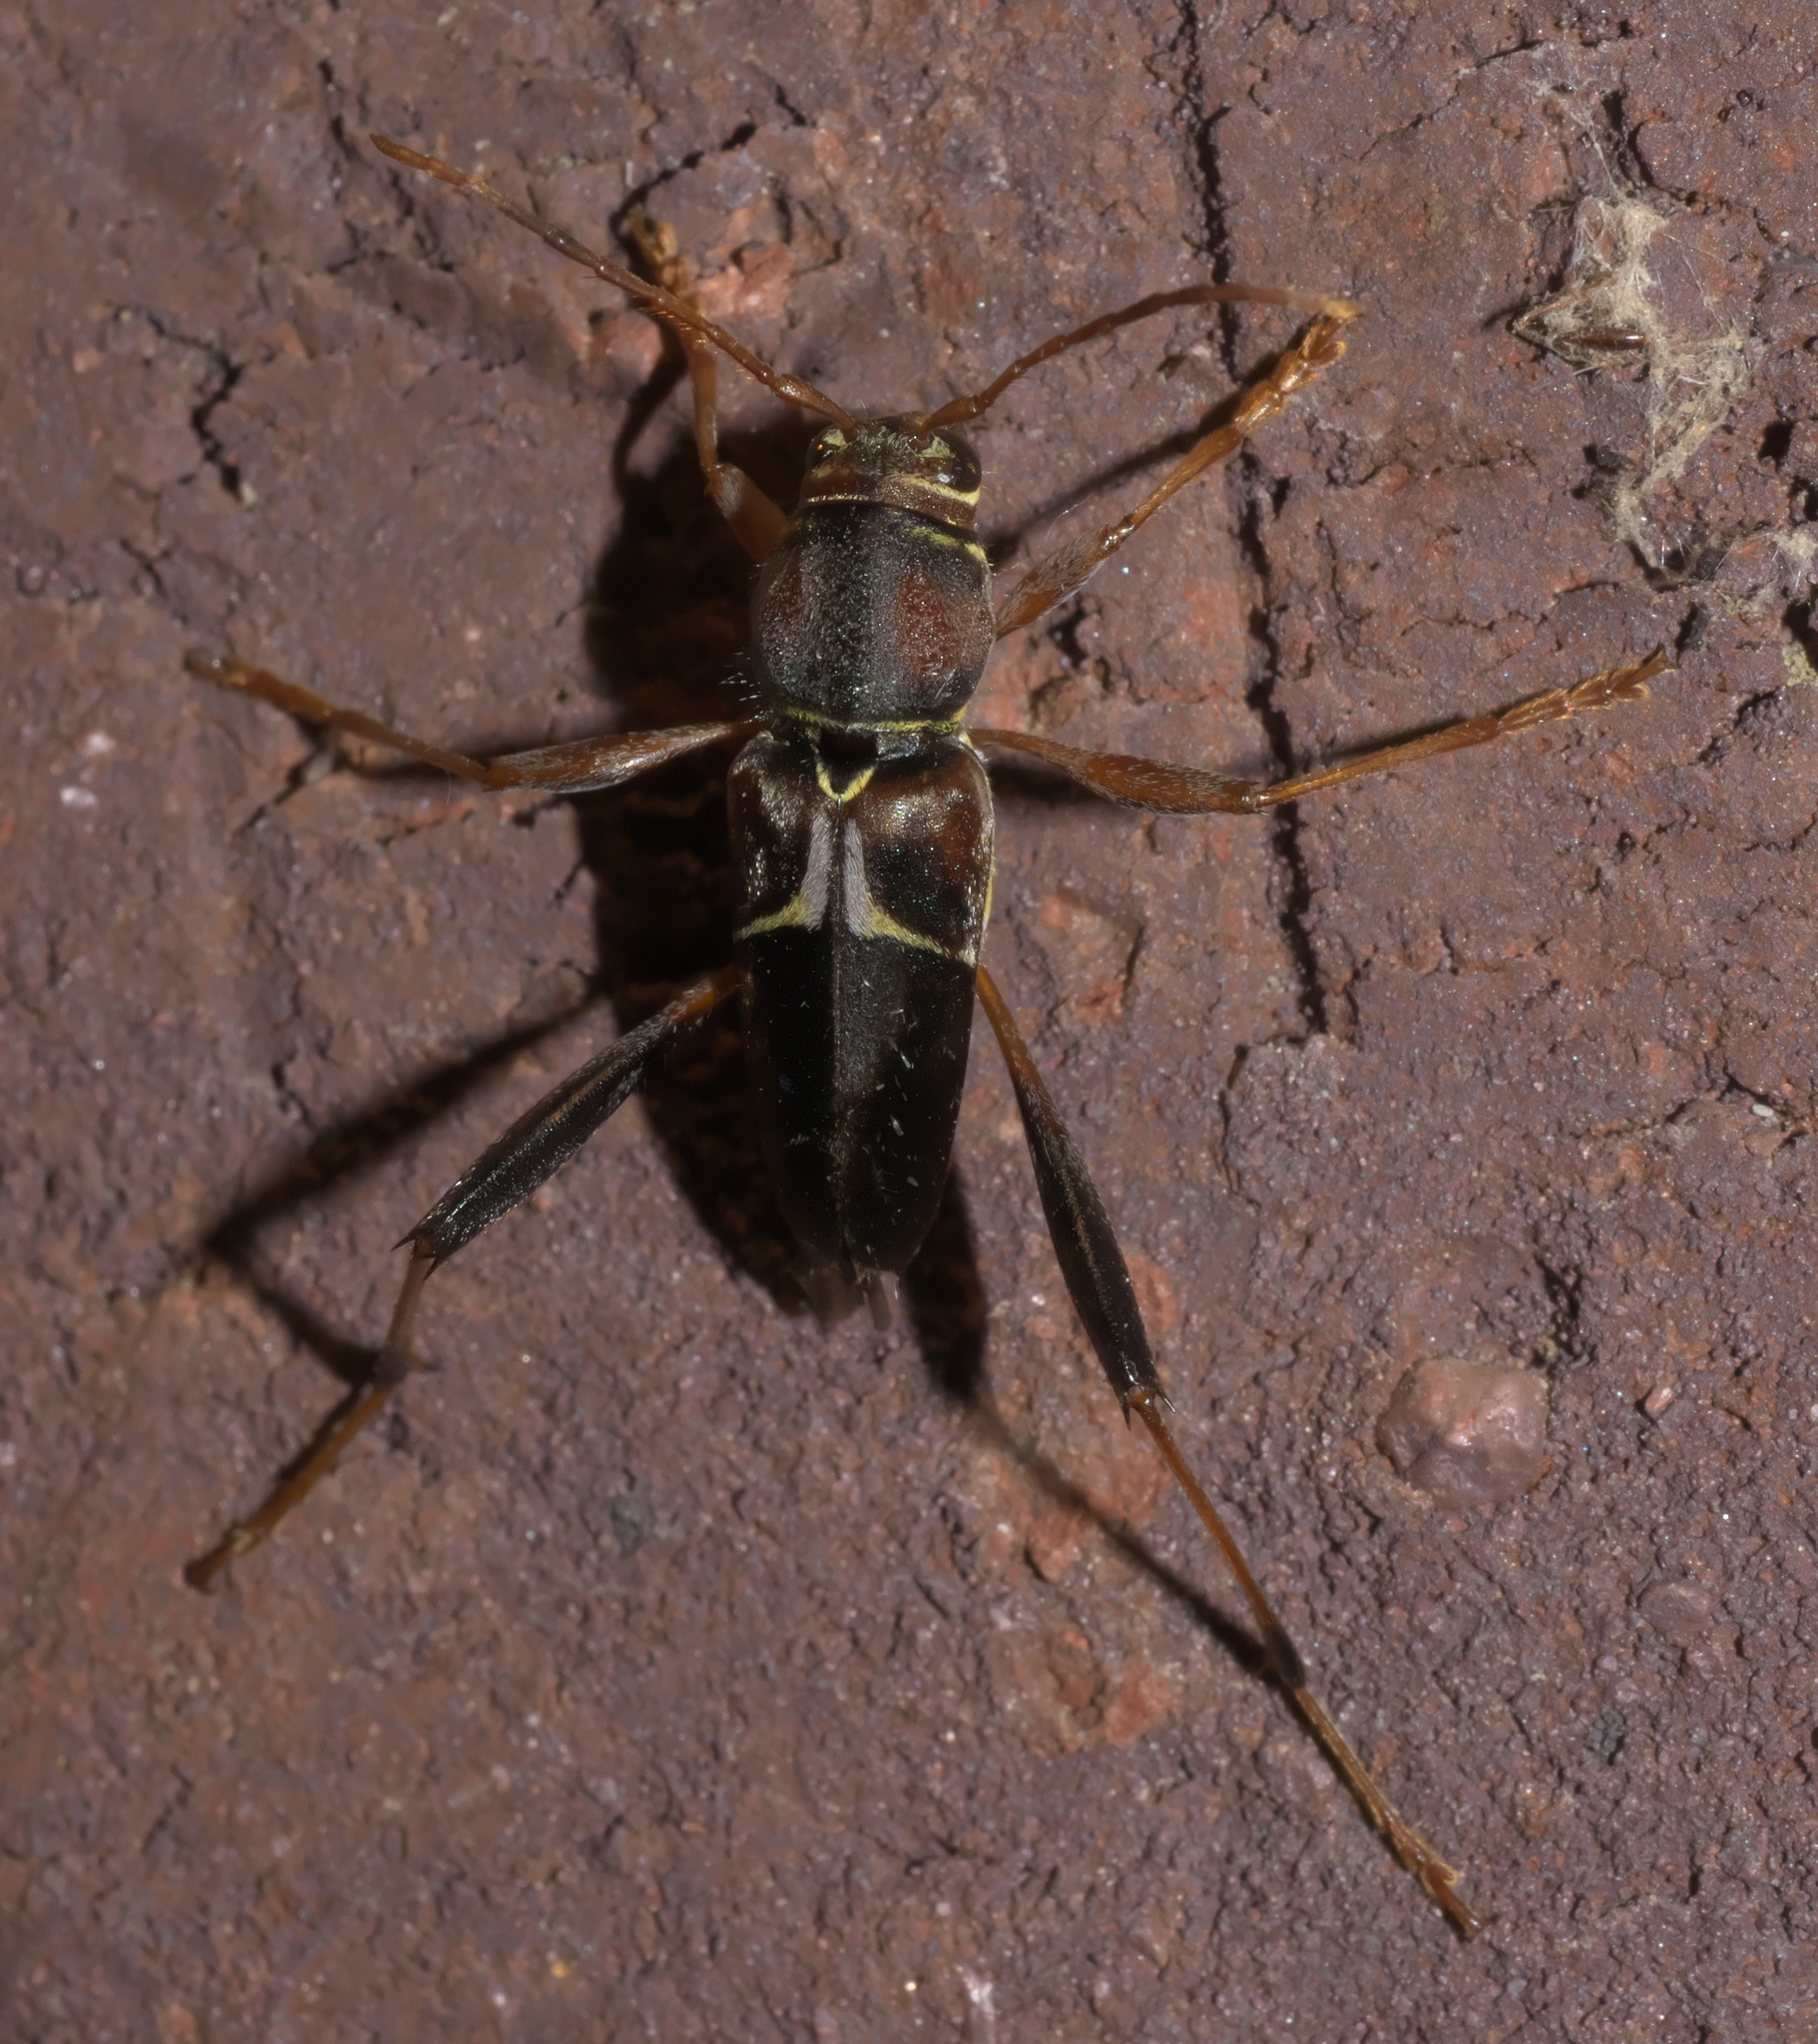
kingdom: Animalia
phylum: Arthropoda
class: Insecta
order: Coleoptera
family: Cerambycidae
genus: Neoclytus
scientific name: Neoclytus mucronatus
